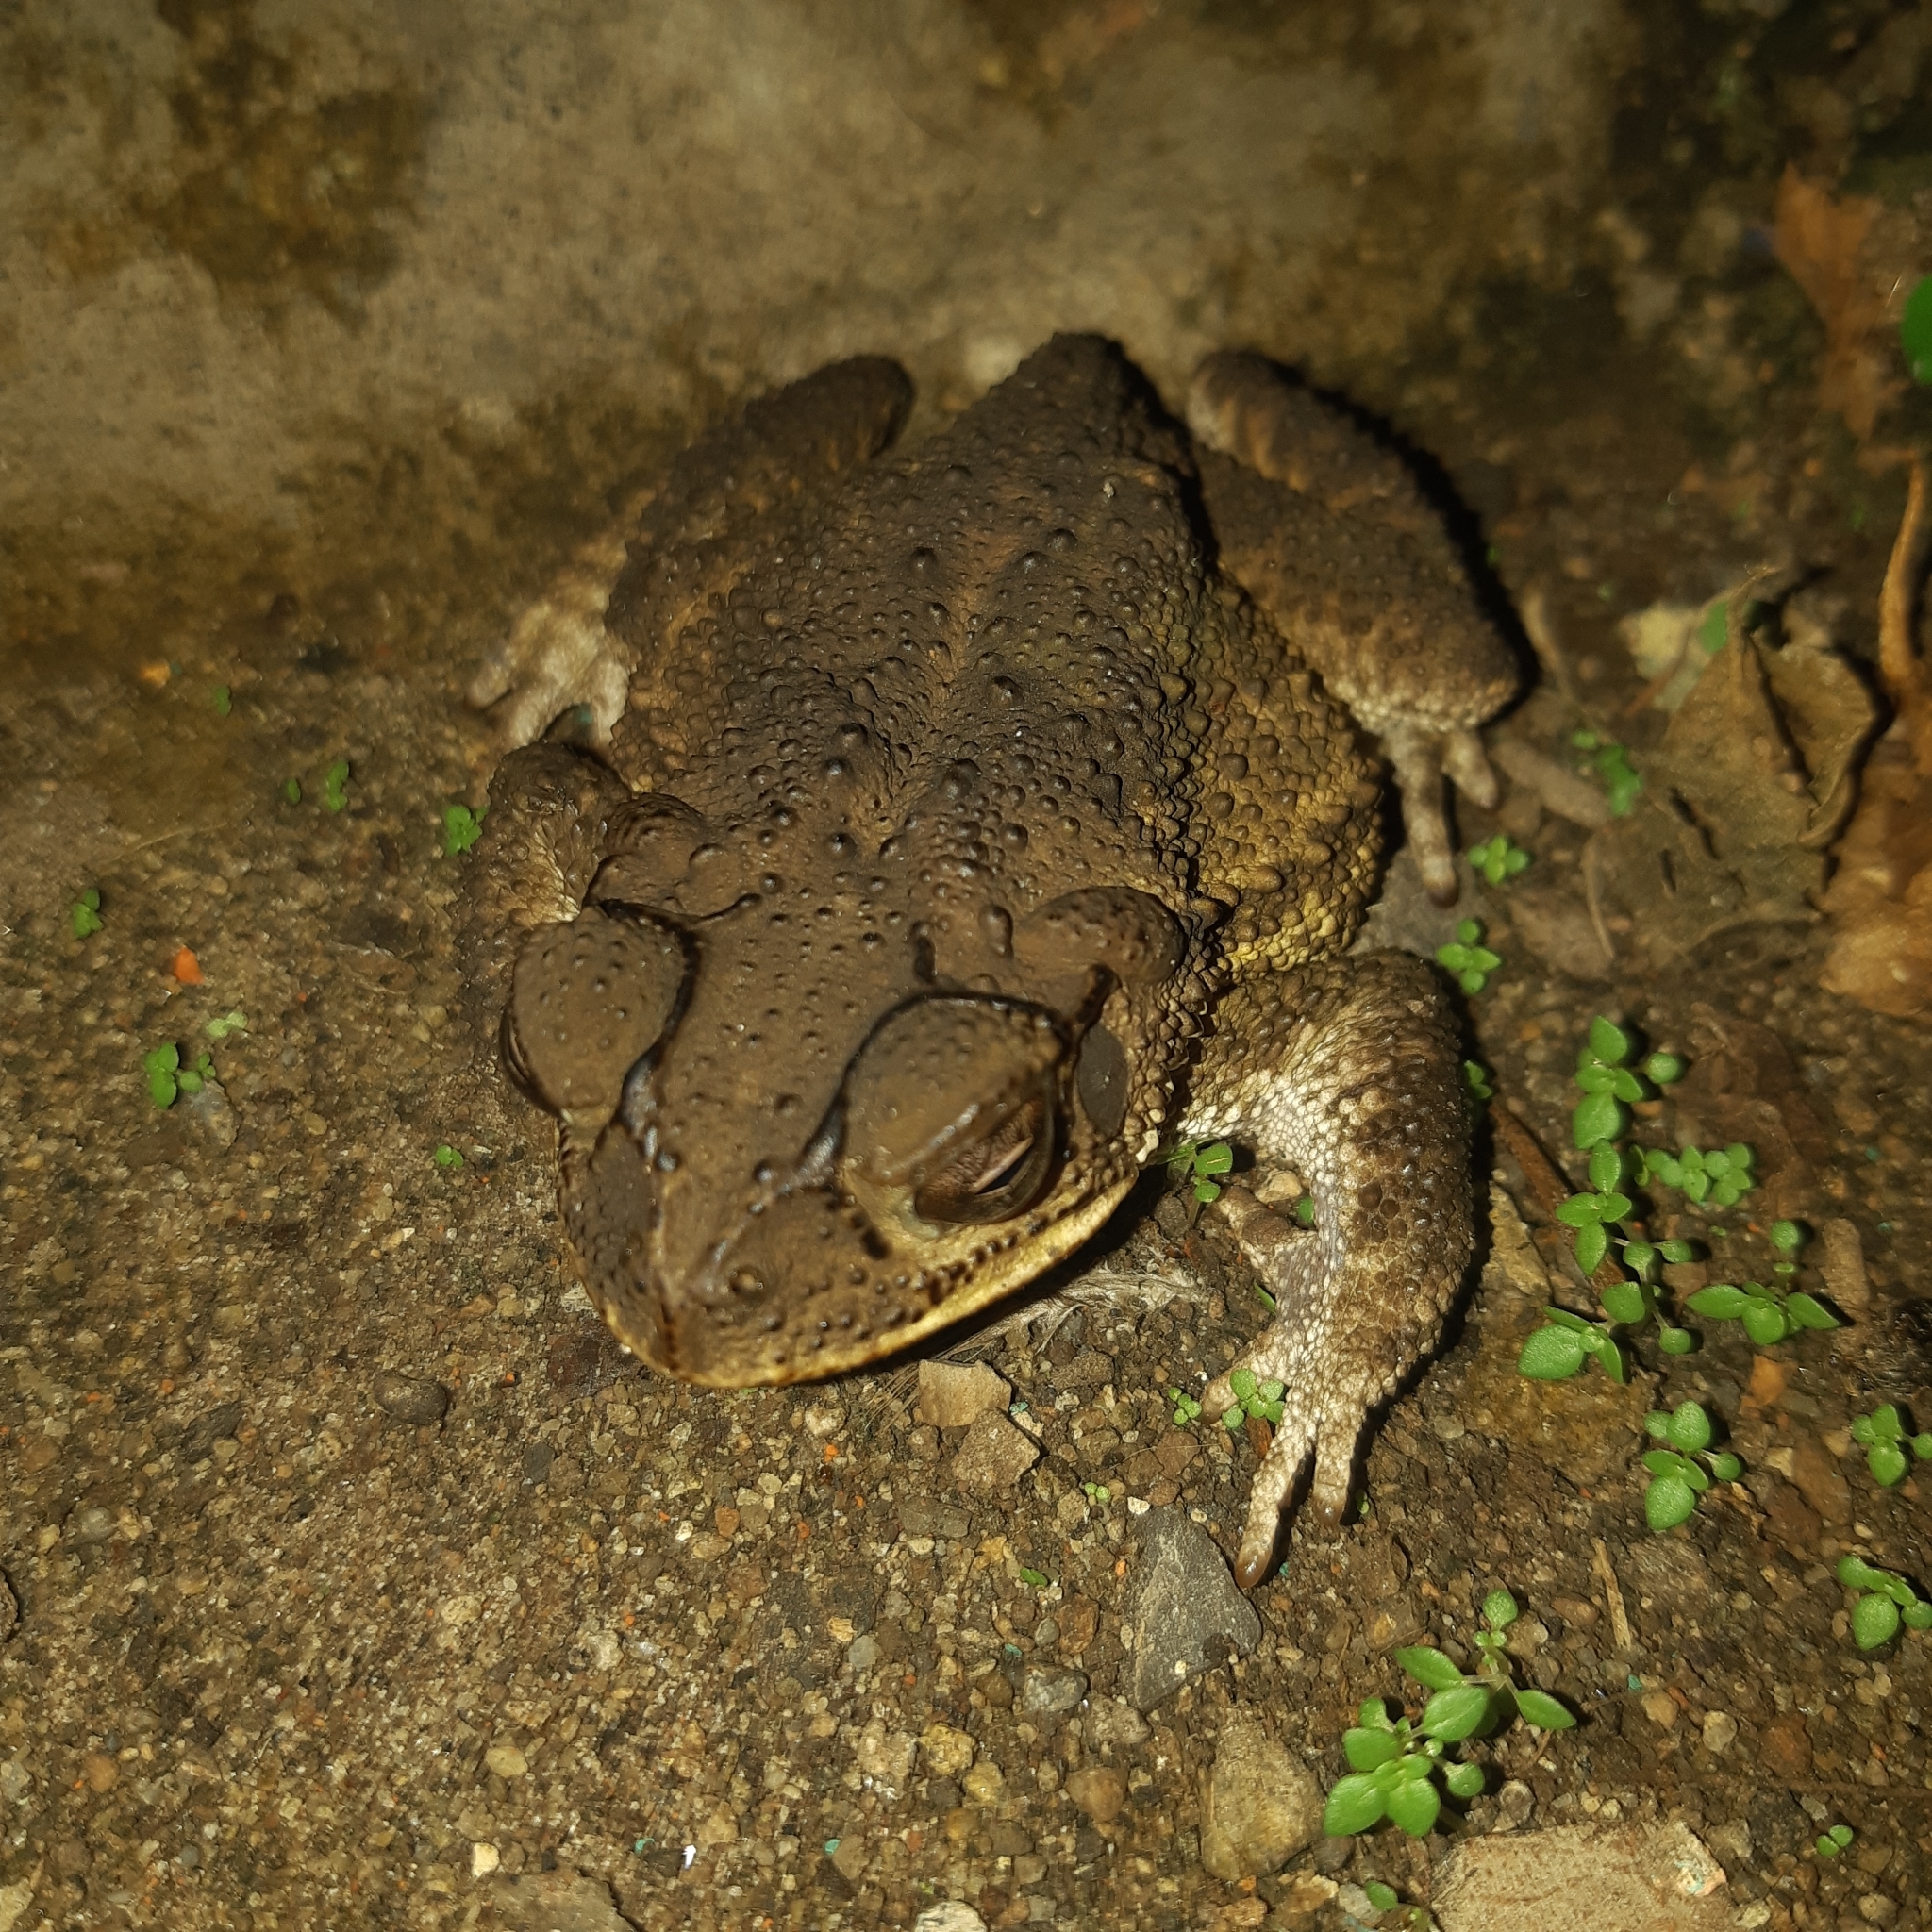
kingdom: Animalia
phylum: Chordata
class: Amphibia
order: Anura
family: Bufonidae
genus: Incilius
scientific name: Incilius luetkenii
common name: Yellow toad
